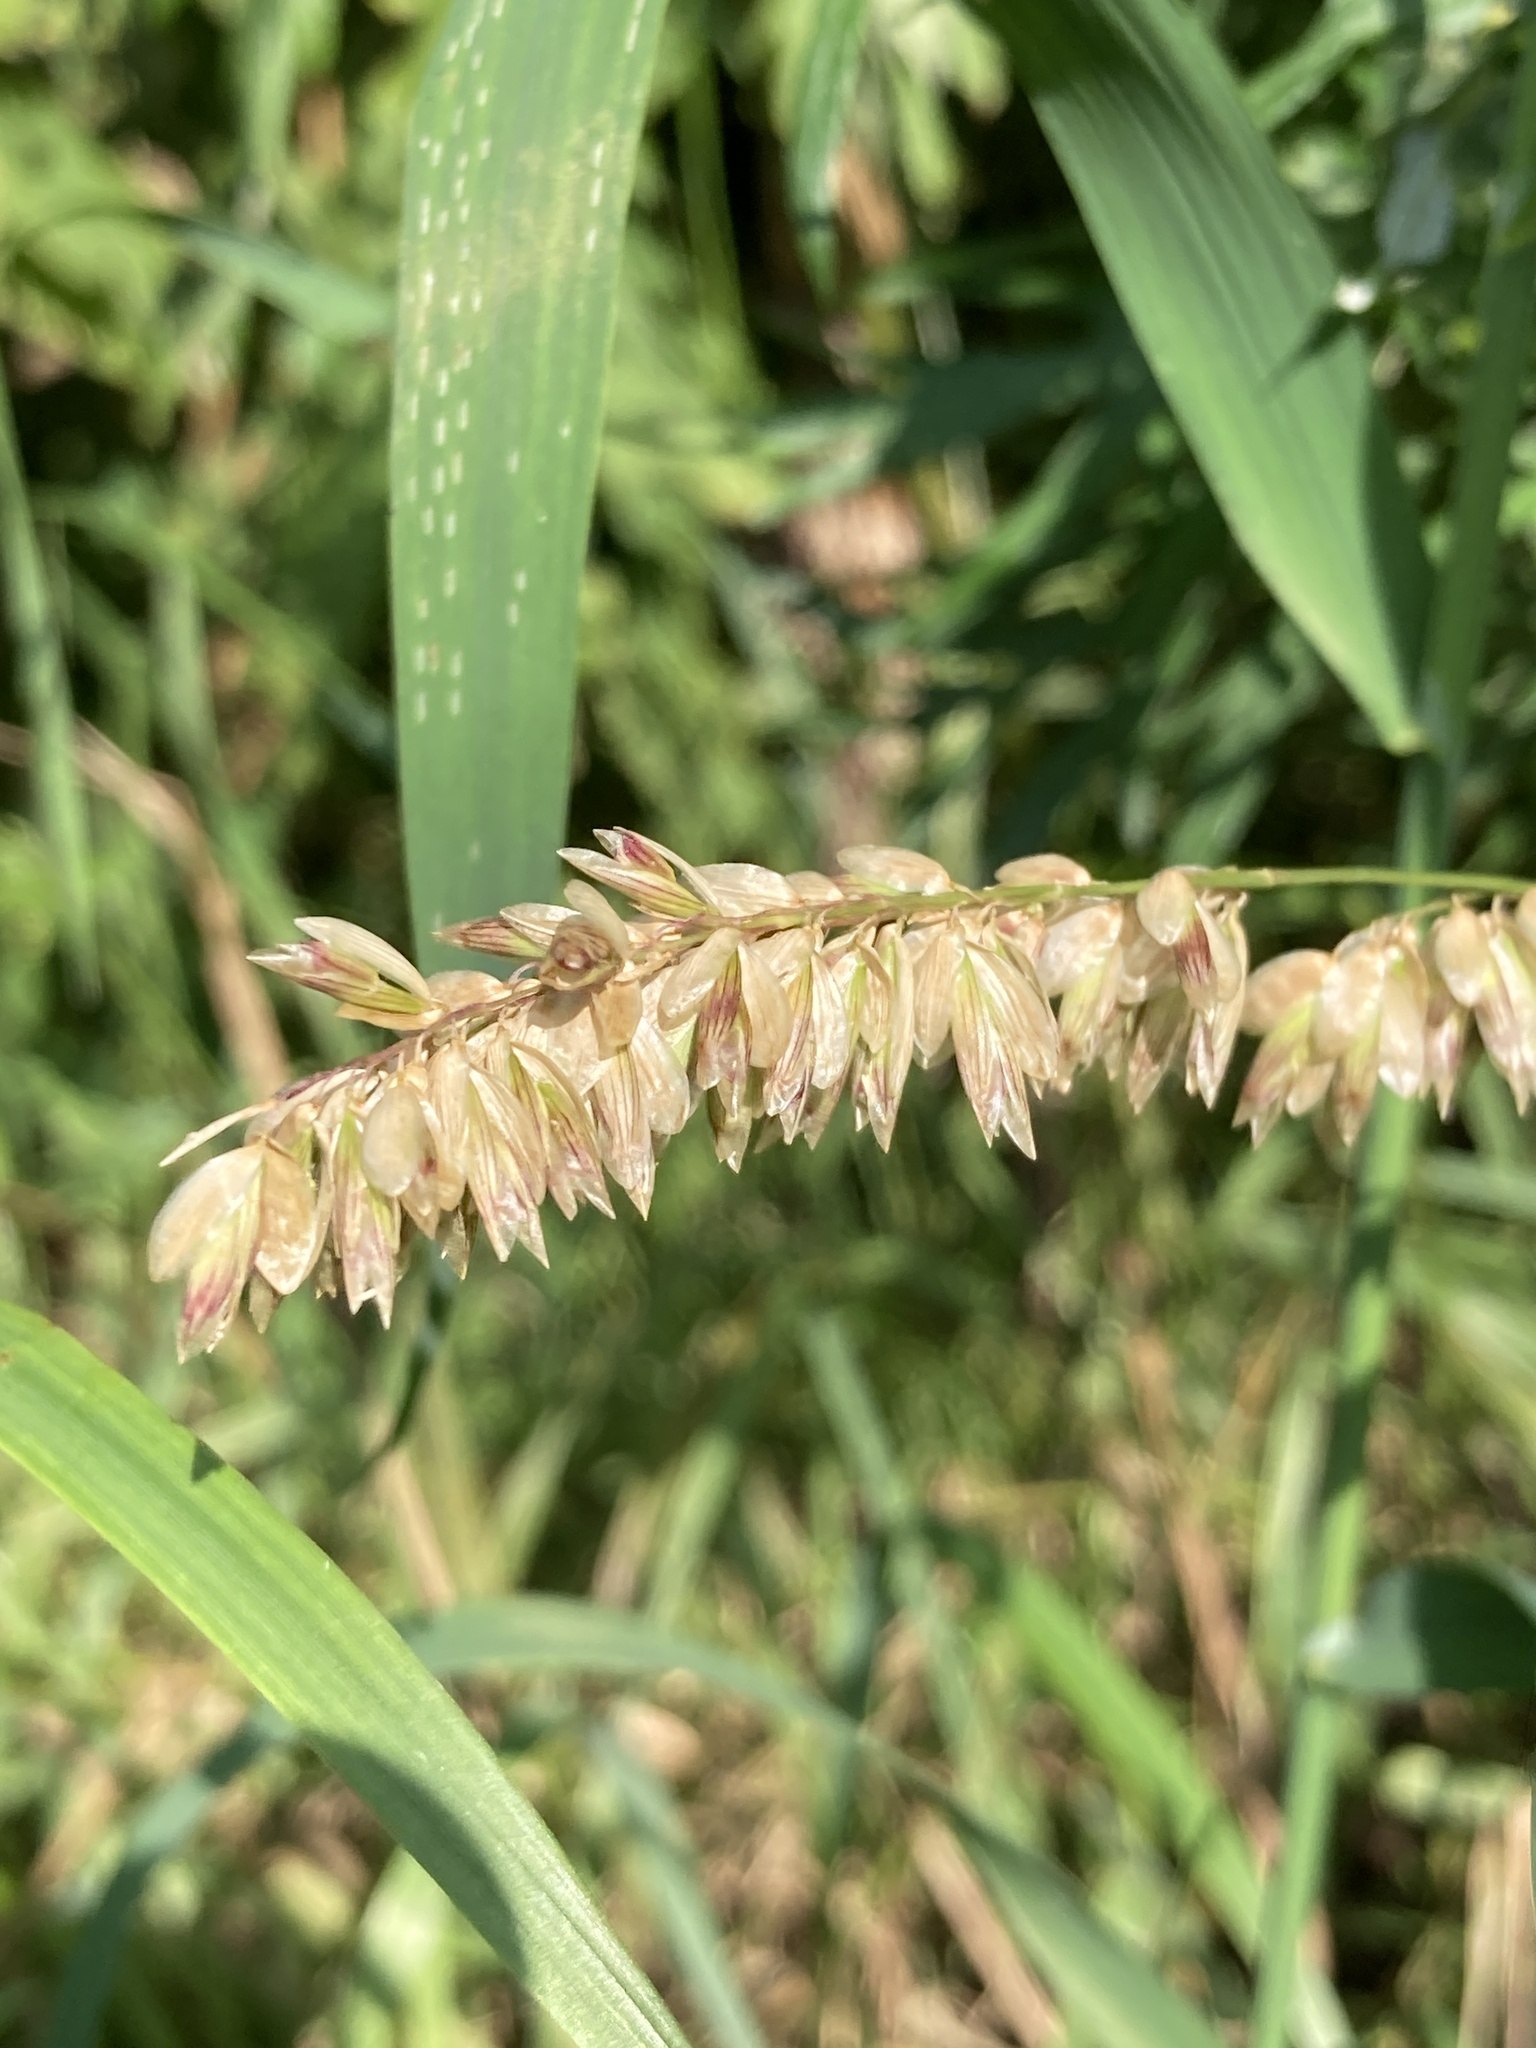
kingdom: Plantae
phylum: Tracheophyta
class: Liliopsida
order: Poales
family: Poaceae
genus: Melica
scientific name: Melica altissima
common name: Siberian melicgrass
